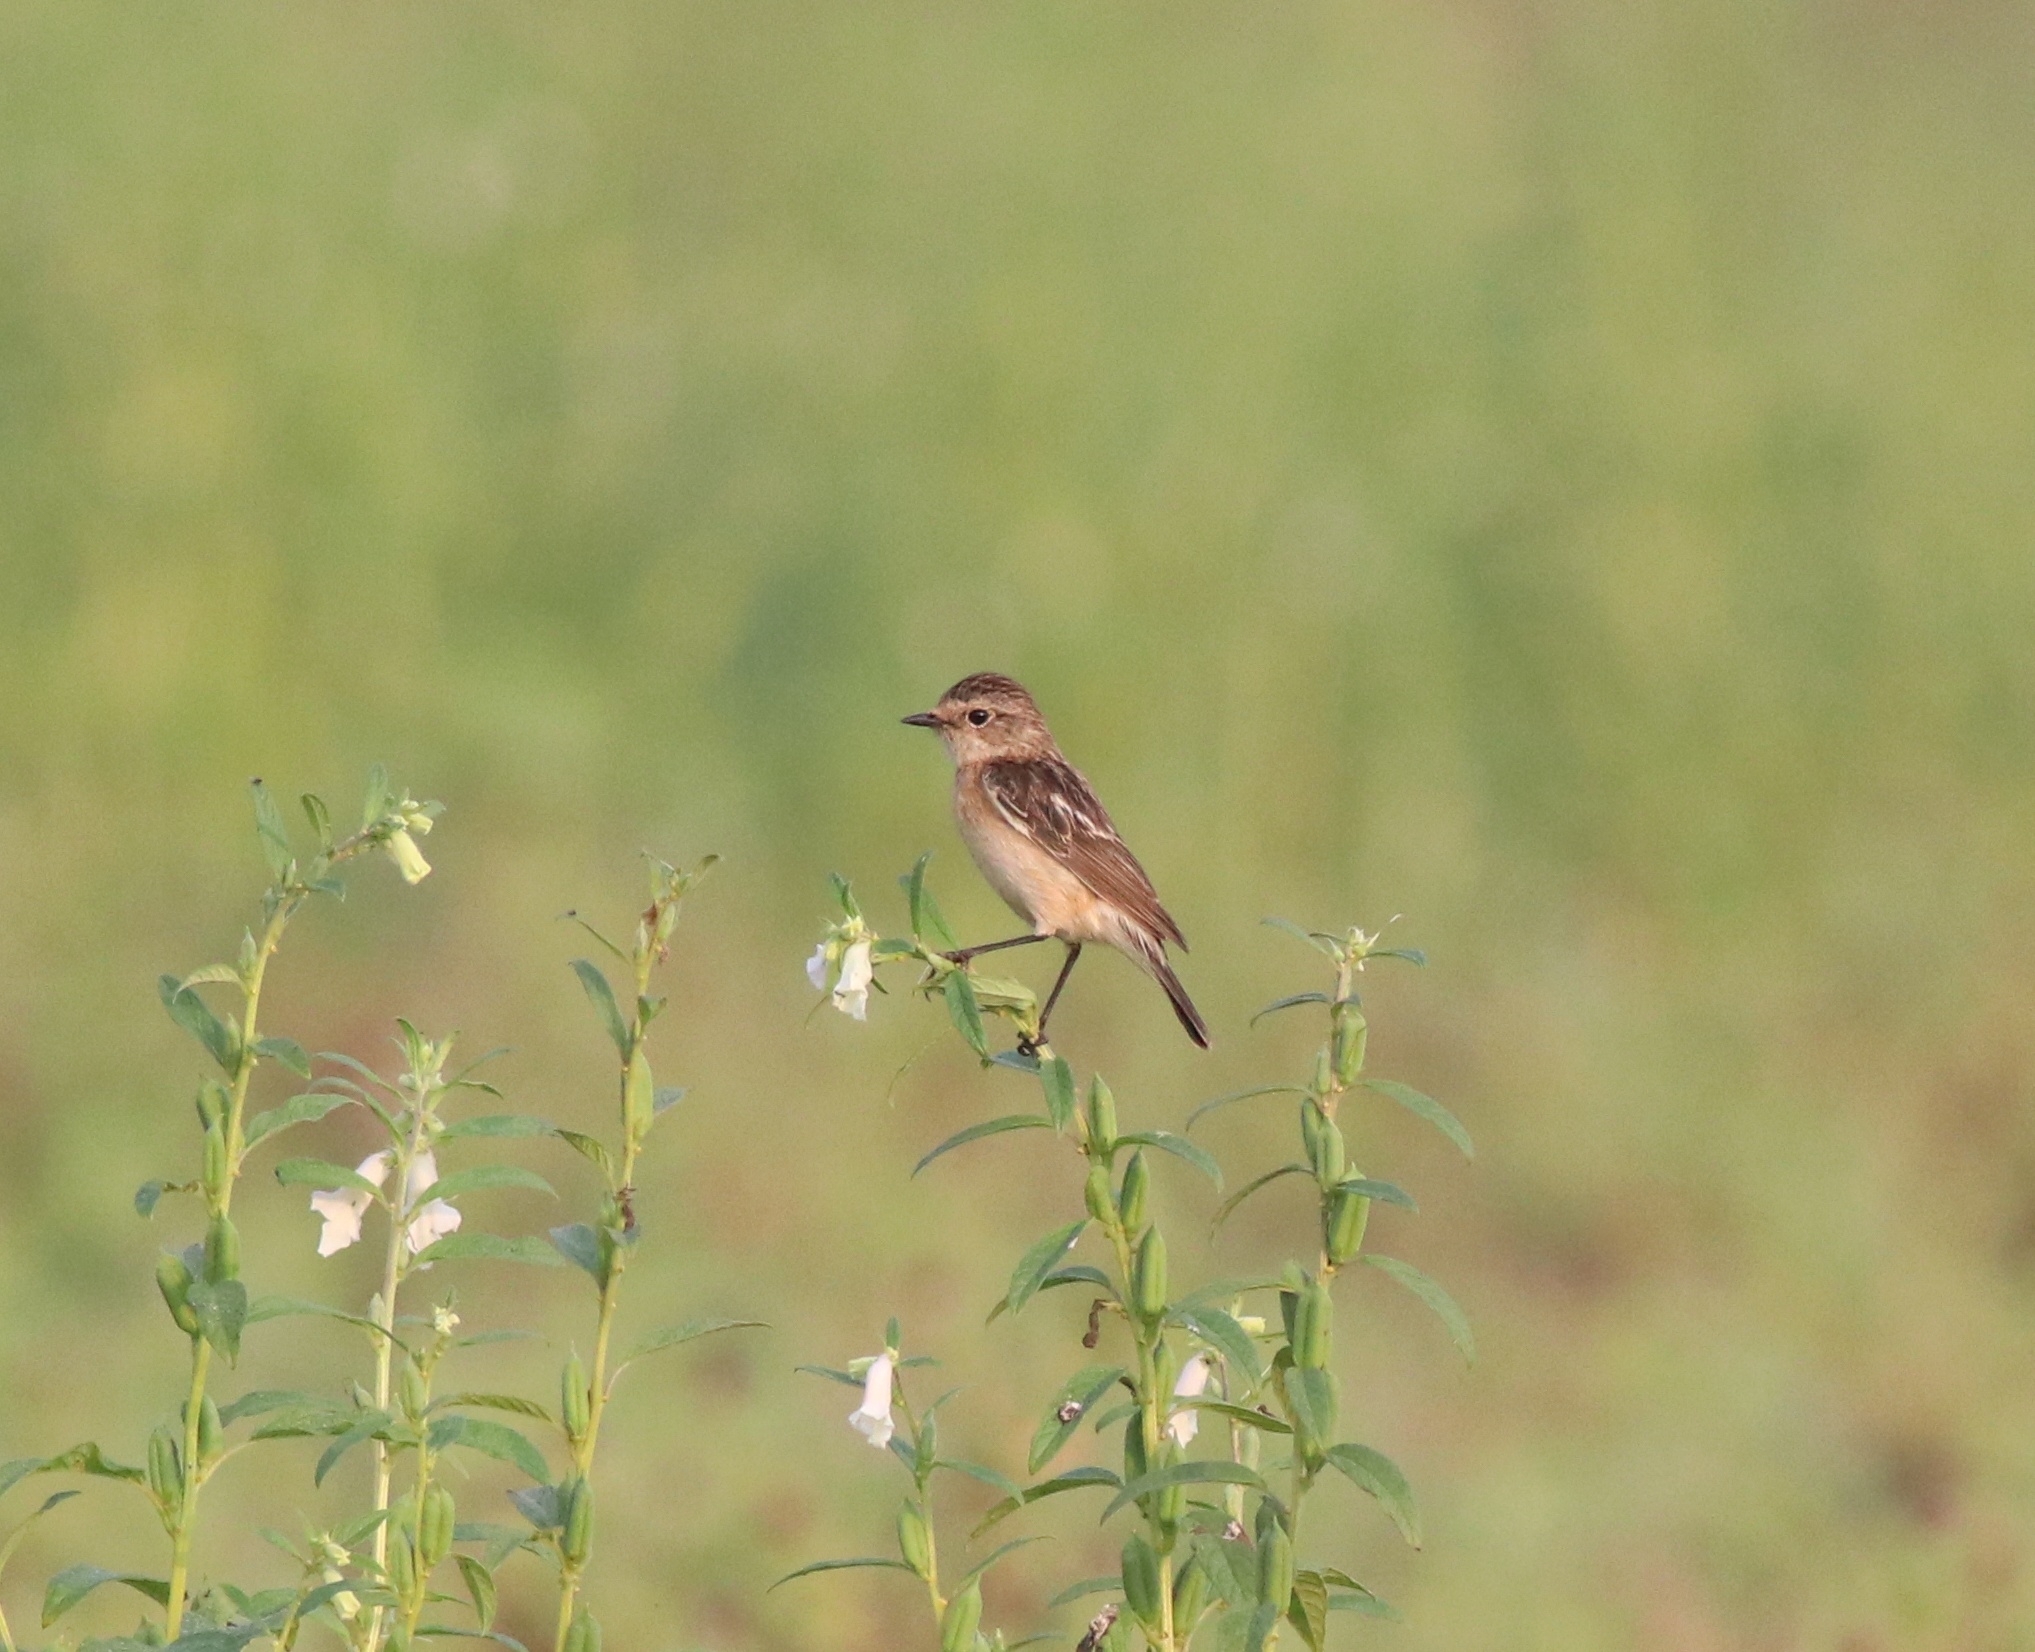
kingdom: Animalia
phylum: Chordata
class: Aves
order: Passeriformes
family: Muscicapidae
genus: Saxicola
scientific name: Saxicola maurus
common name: Siberian stonechat
